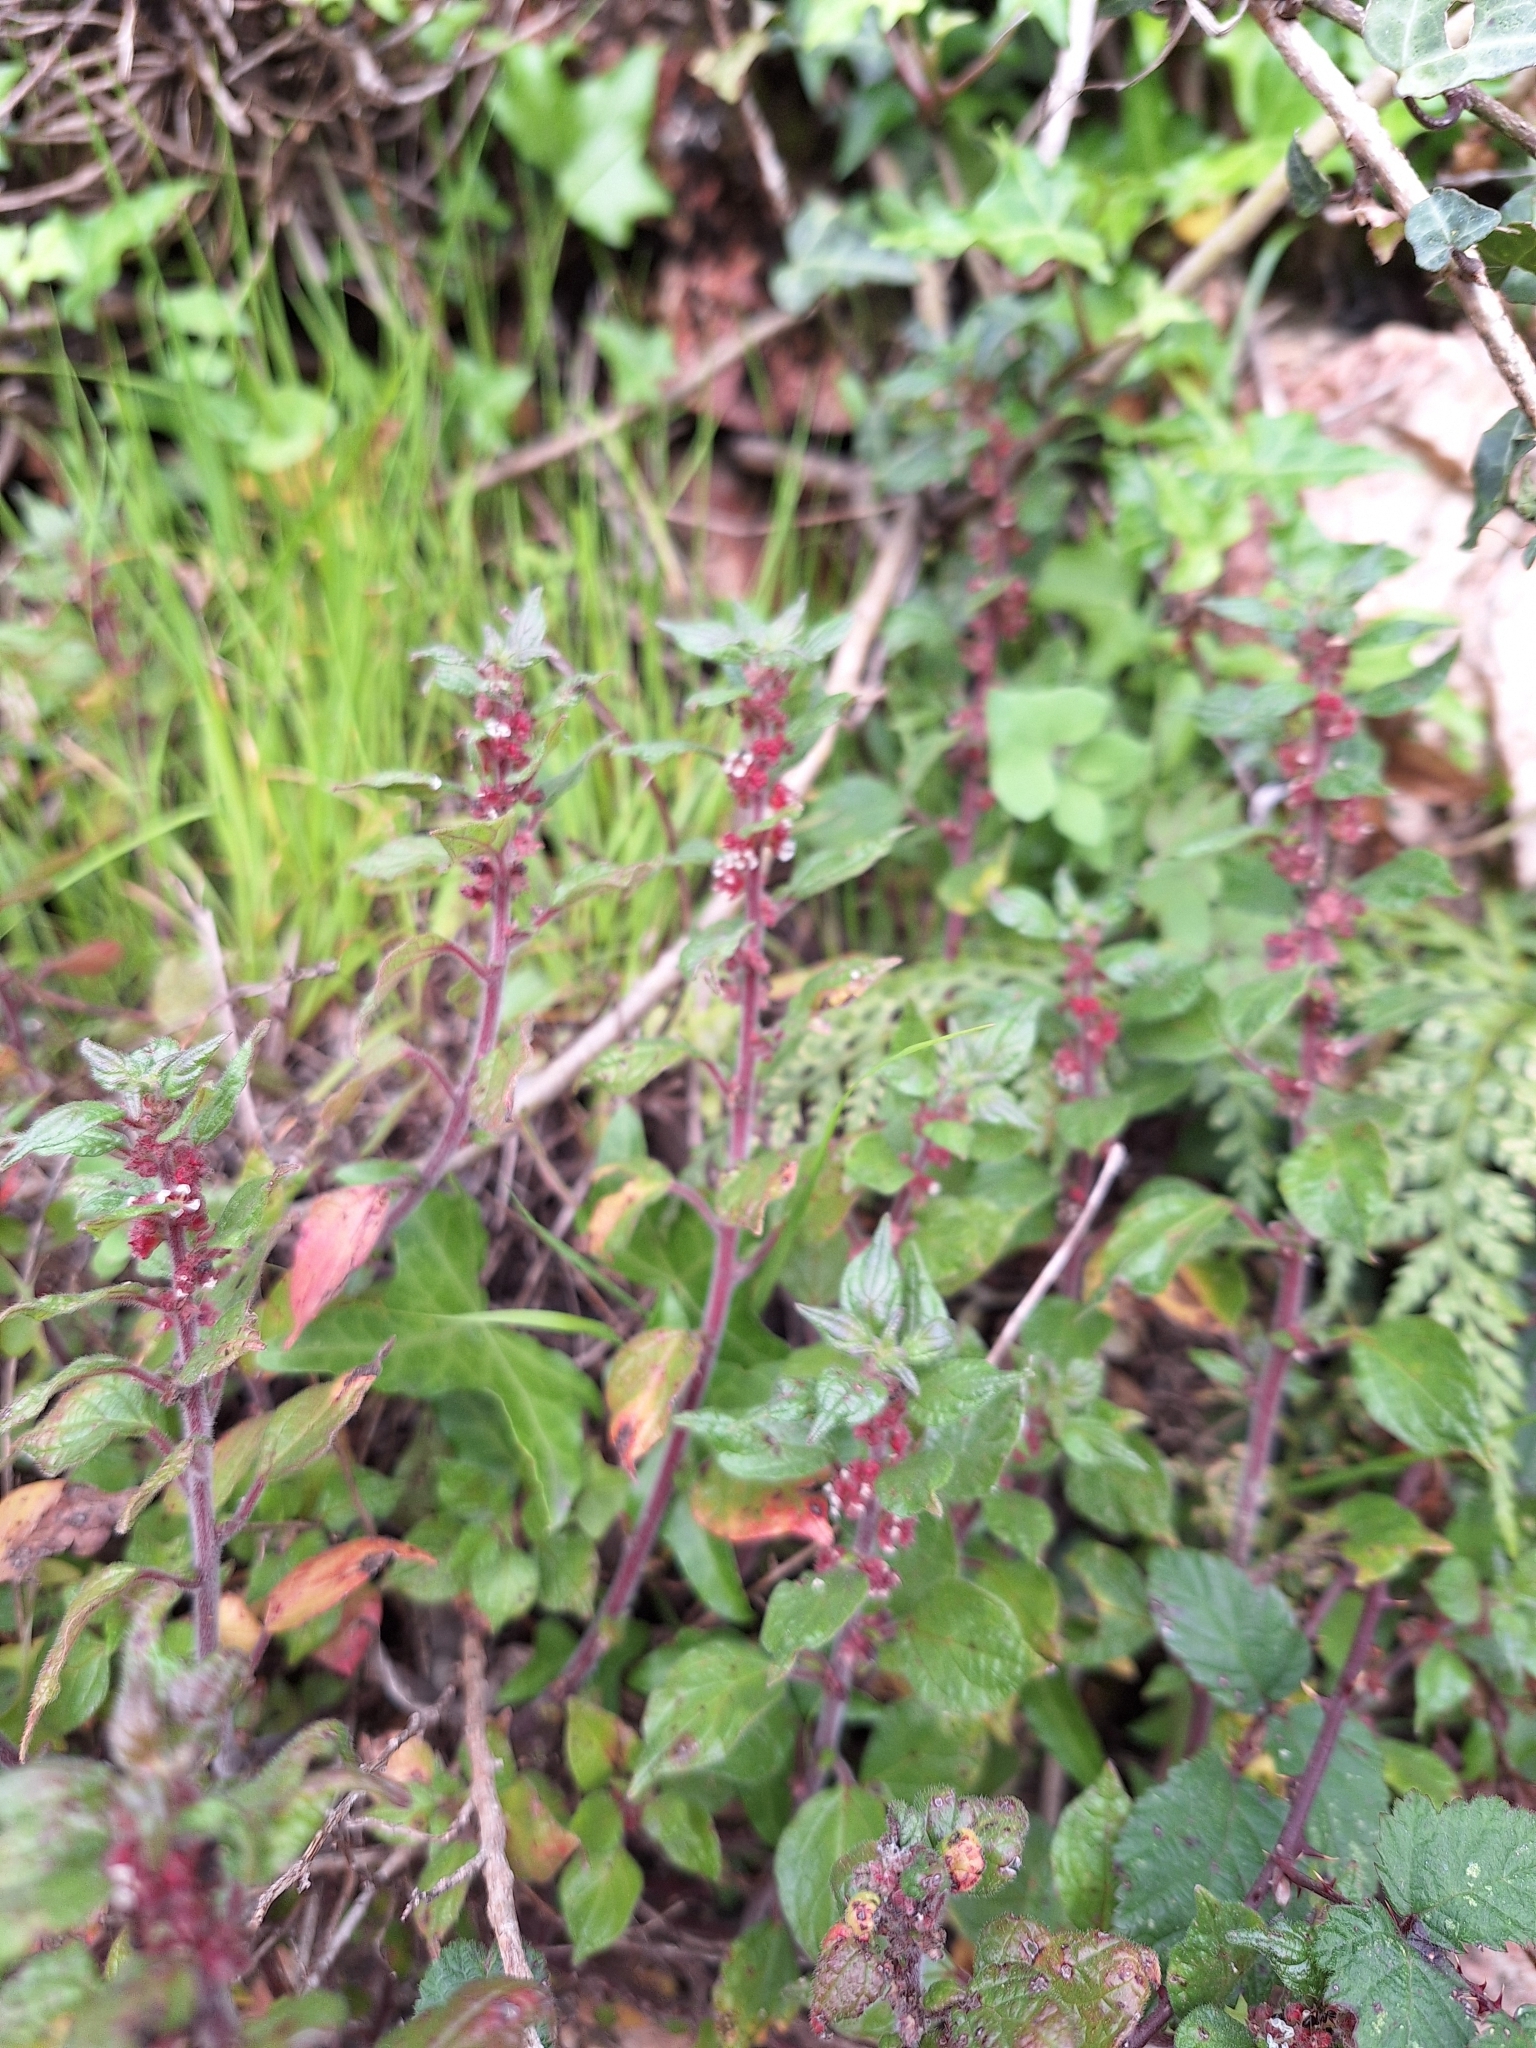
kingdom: Plantae
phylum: Tracheophyta
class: Magnoliopsida
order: Rosales
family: Urticaceae
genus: Parietaria
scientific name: Parietaria judaica
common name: Pellitory-of-the-wall
